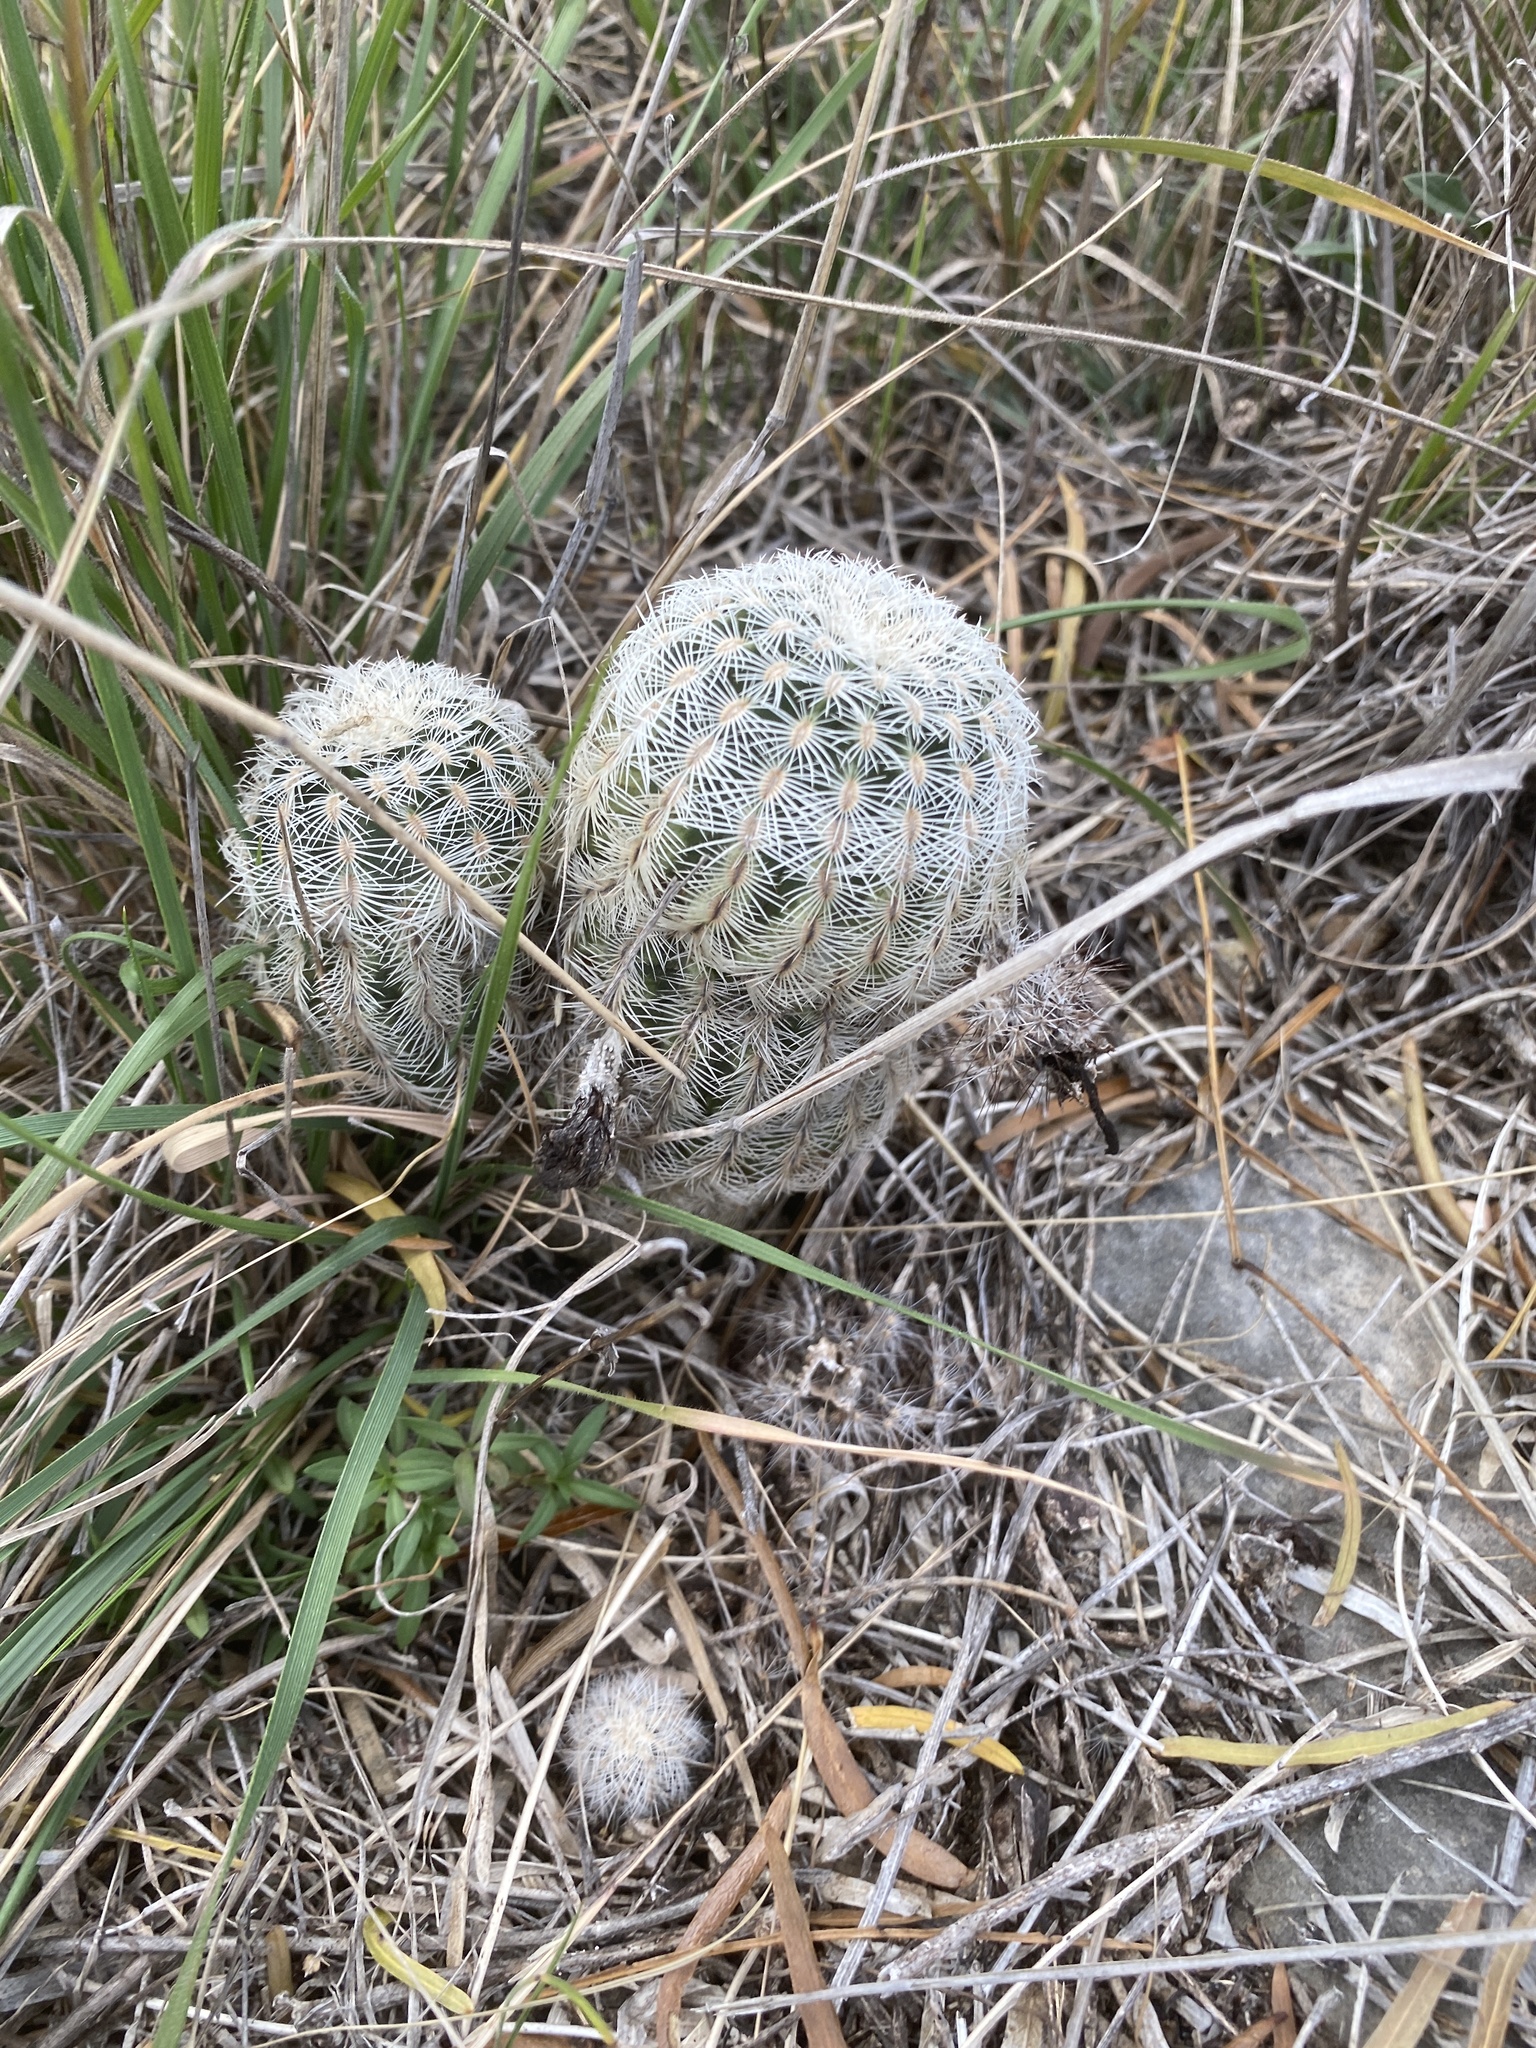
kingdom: Plantae
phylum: Tracheophyta
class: Magnoliopsida
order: Caryophyllales
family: Cactaceae
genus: Echinocereus
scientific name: Echinocereus reichenbachii
